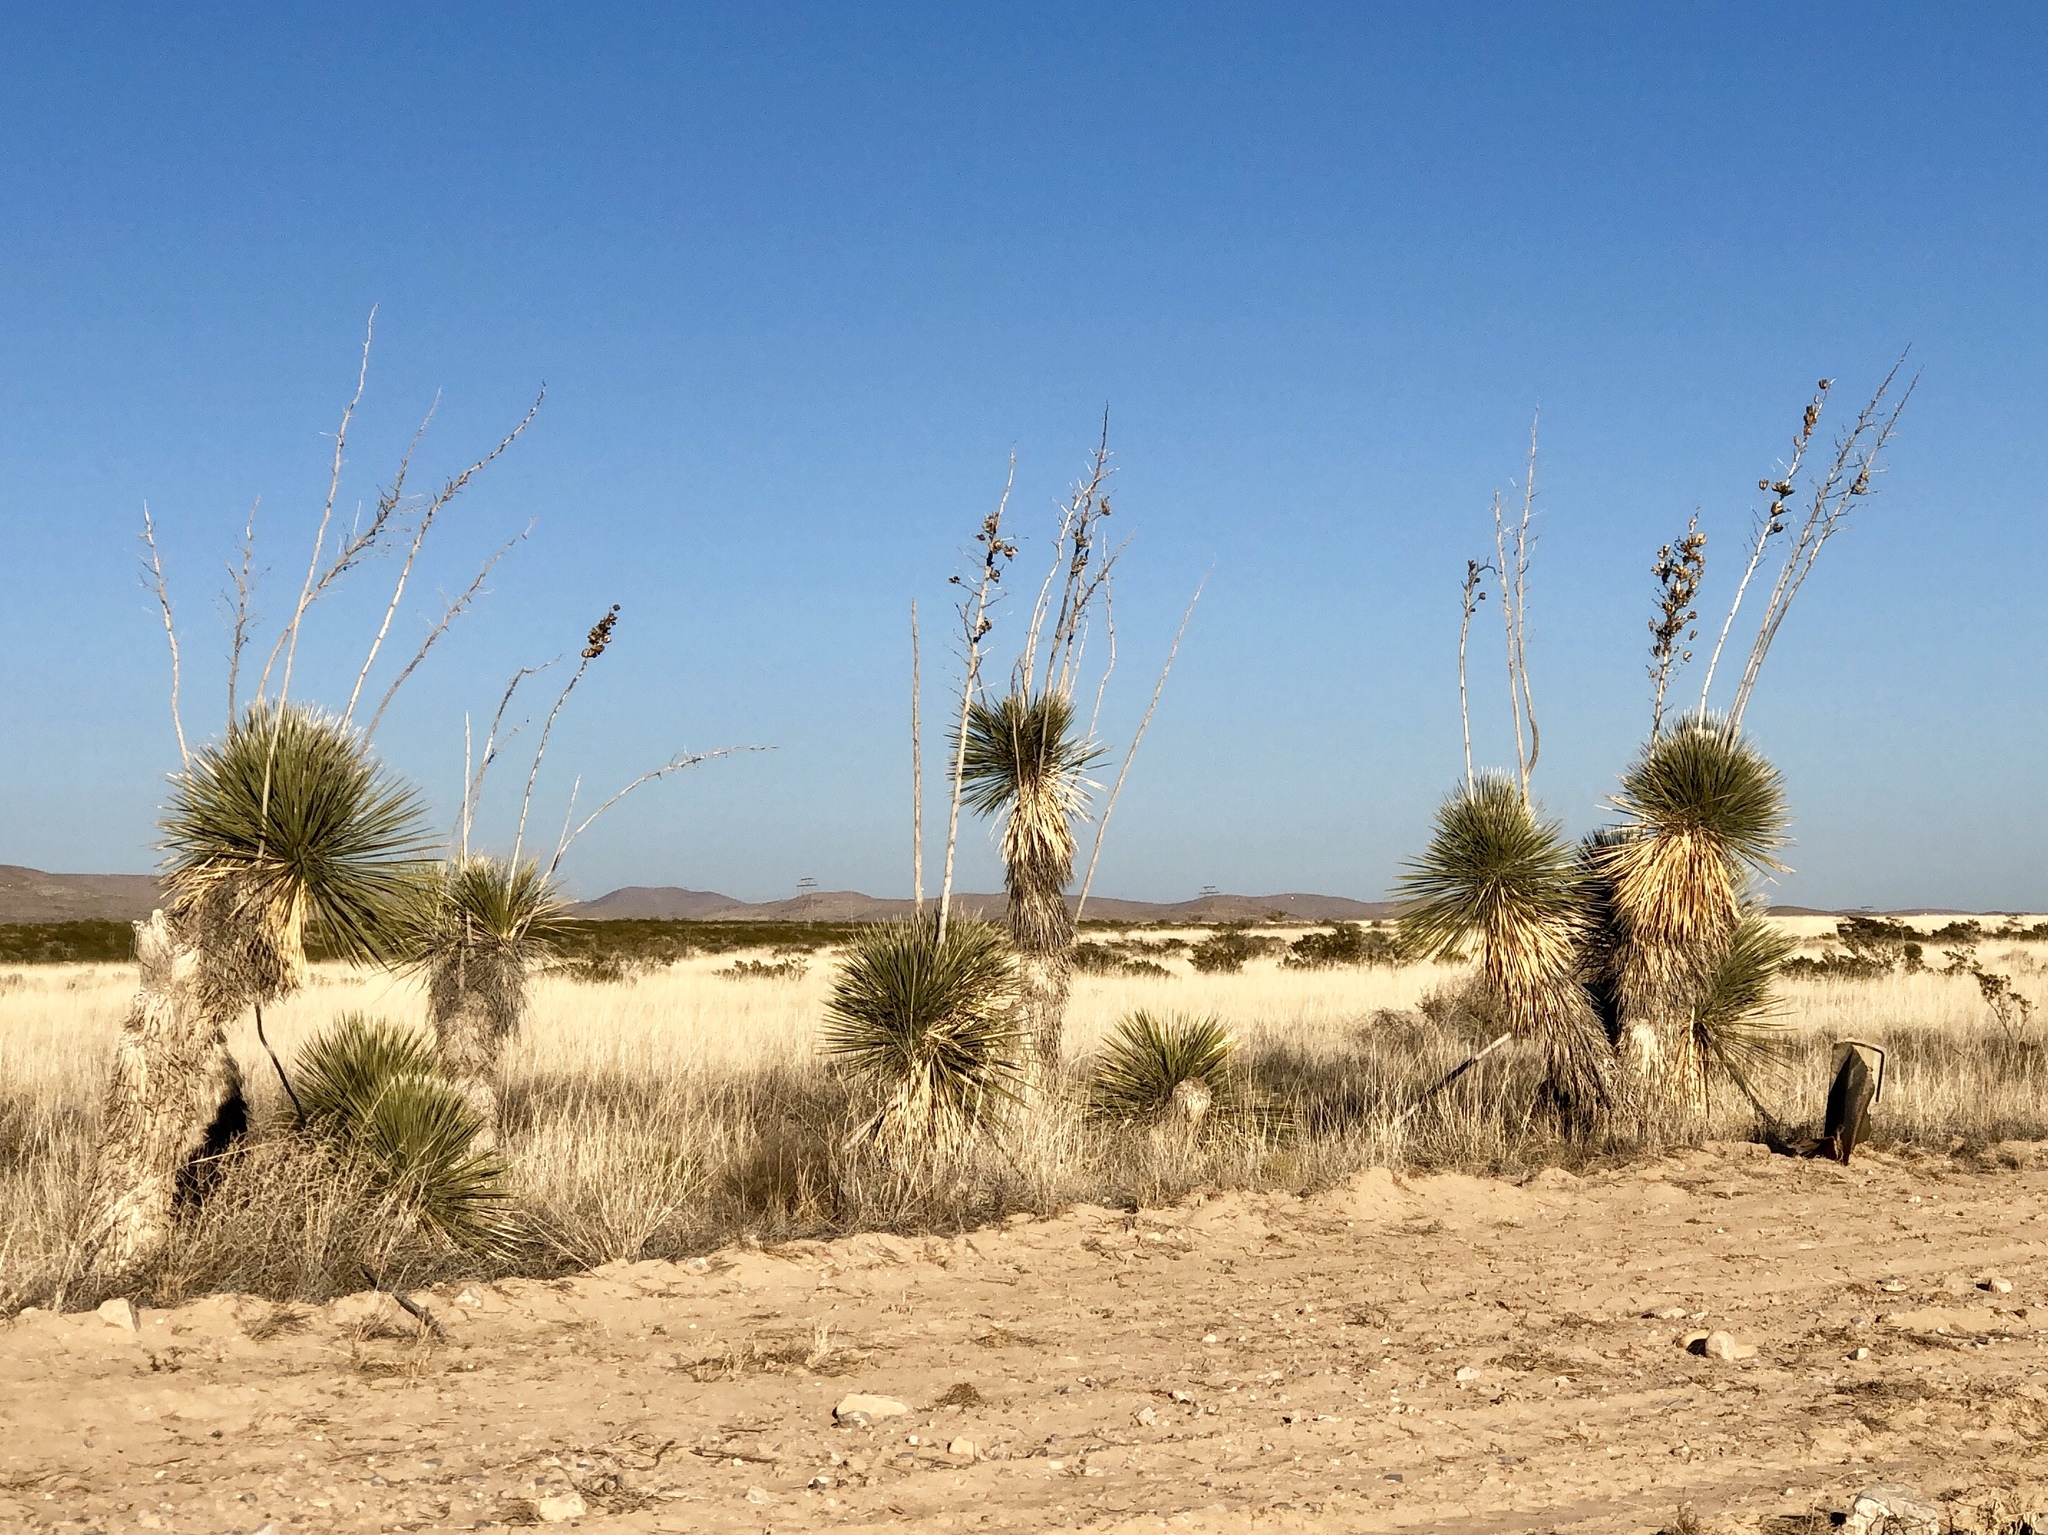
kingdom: Plantae
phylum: Tracheophyta
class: Liliopsida
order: Asparagales
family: Asparagaceae
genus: Yucca
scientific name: Yucca elata
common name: Palmella
